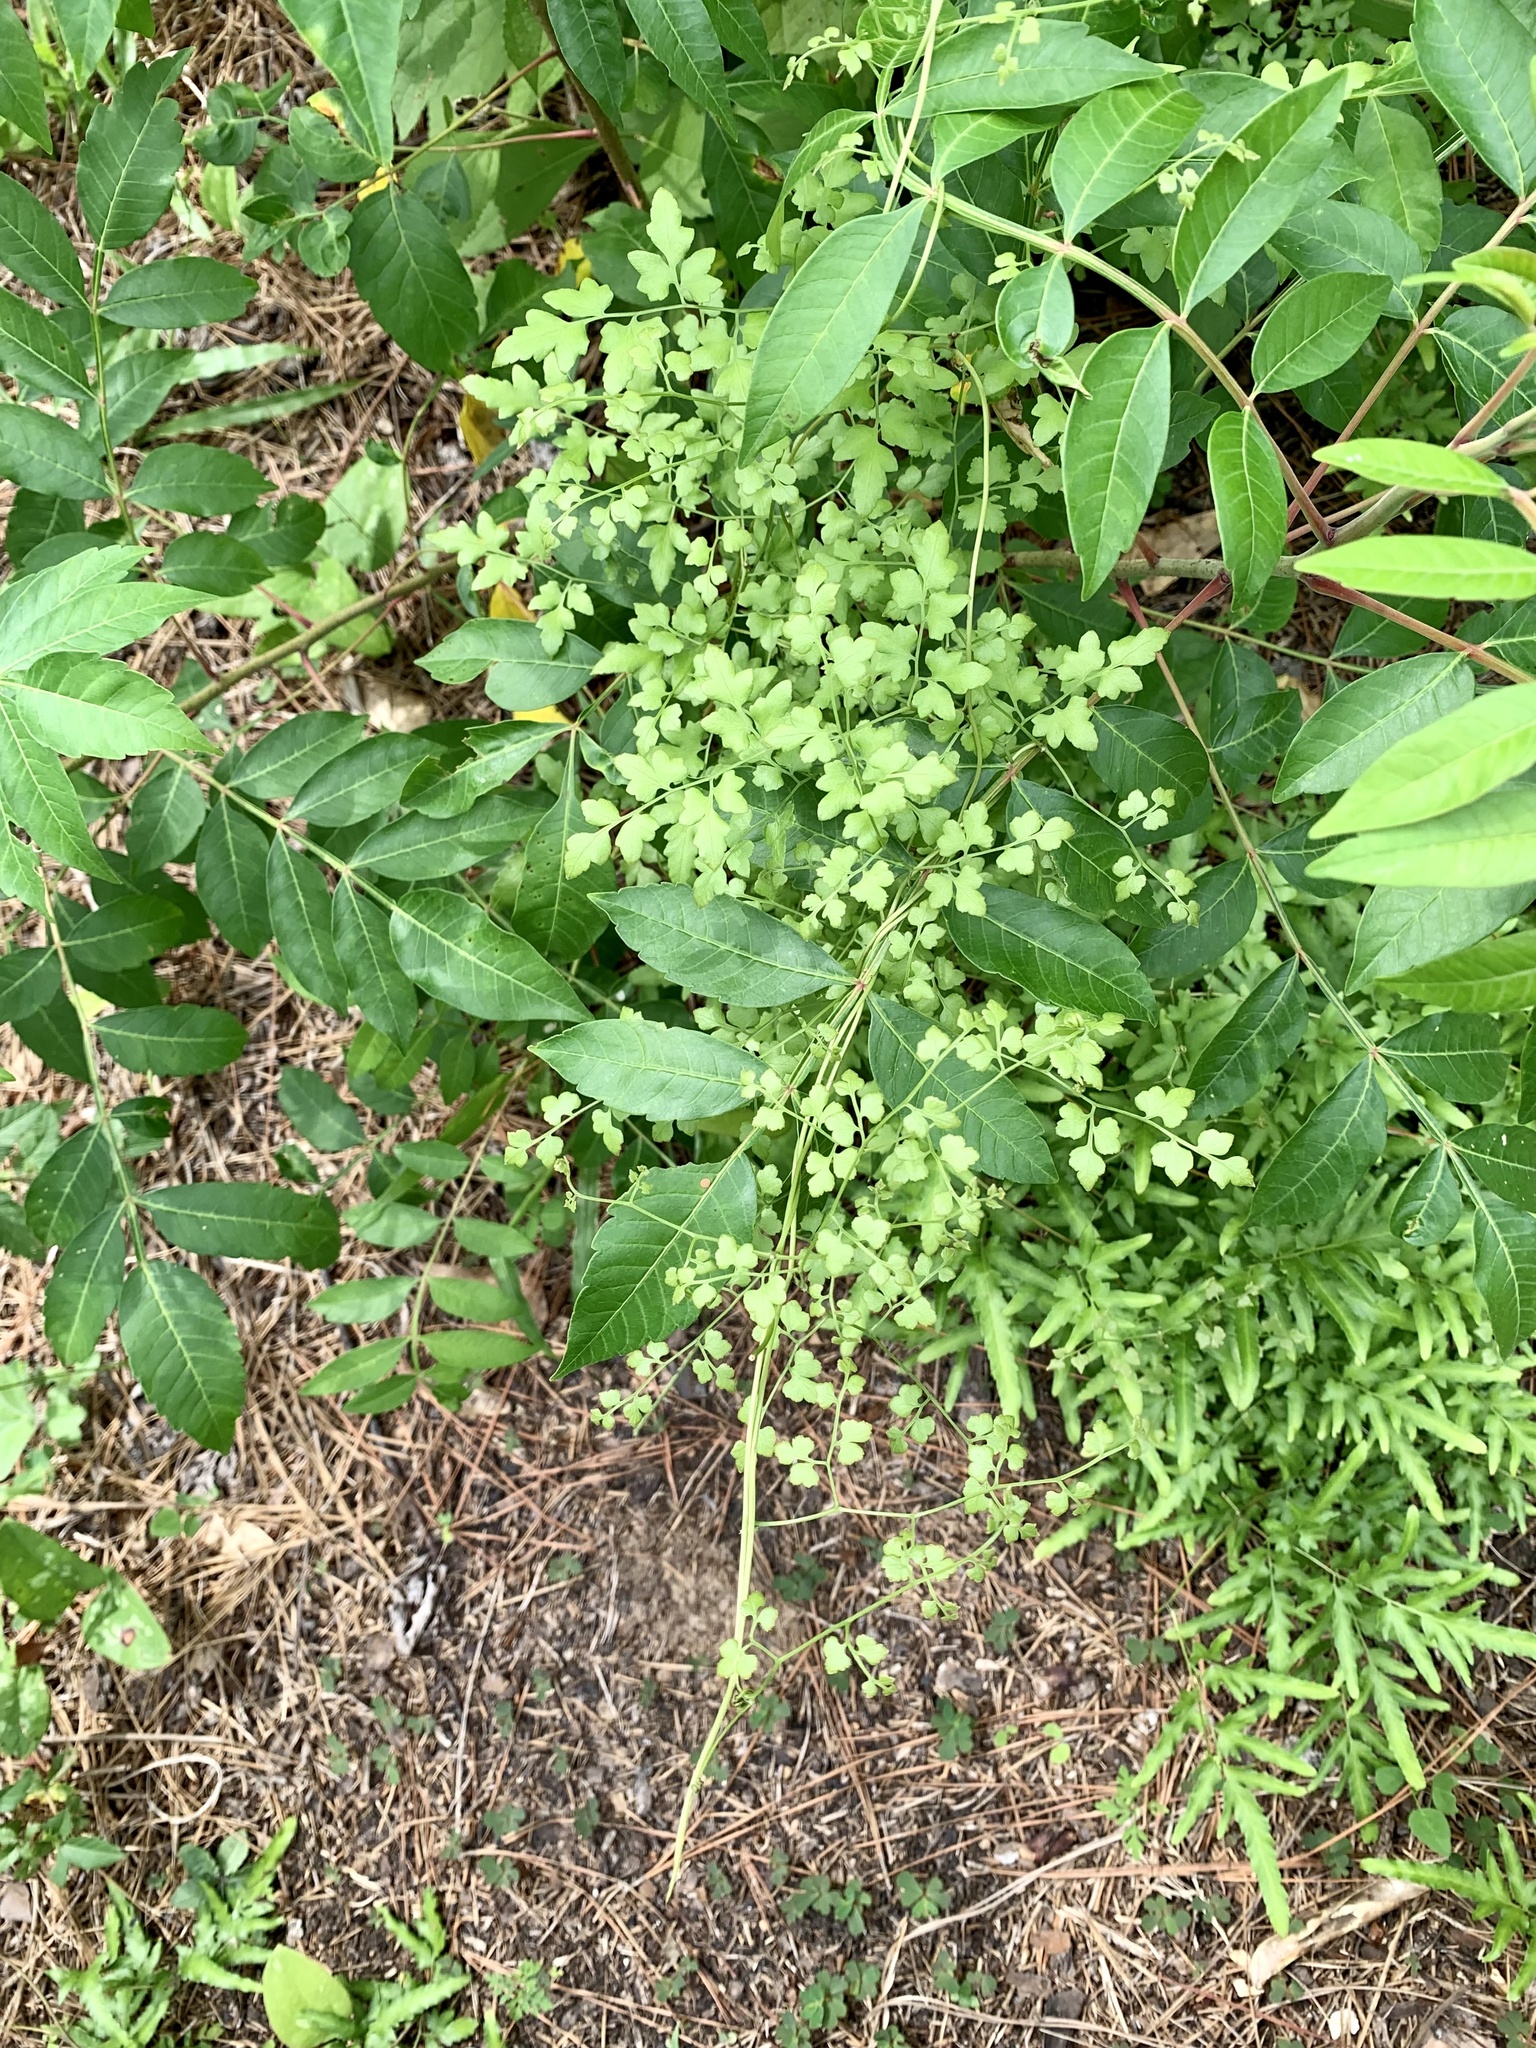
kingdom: Plantae
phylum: Tracheophyta
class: Polypodiopsida
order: Schizaeales
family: Lygodiaceae
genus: Lygodium
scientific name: Lygodium japonicum
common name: Japanese climbing fern
